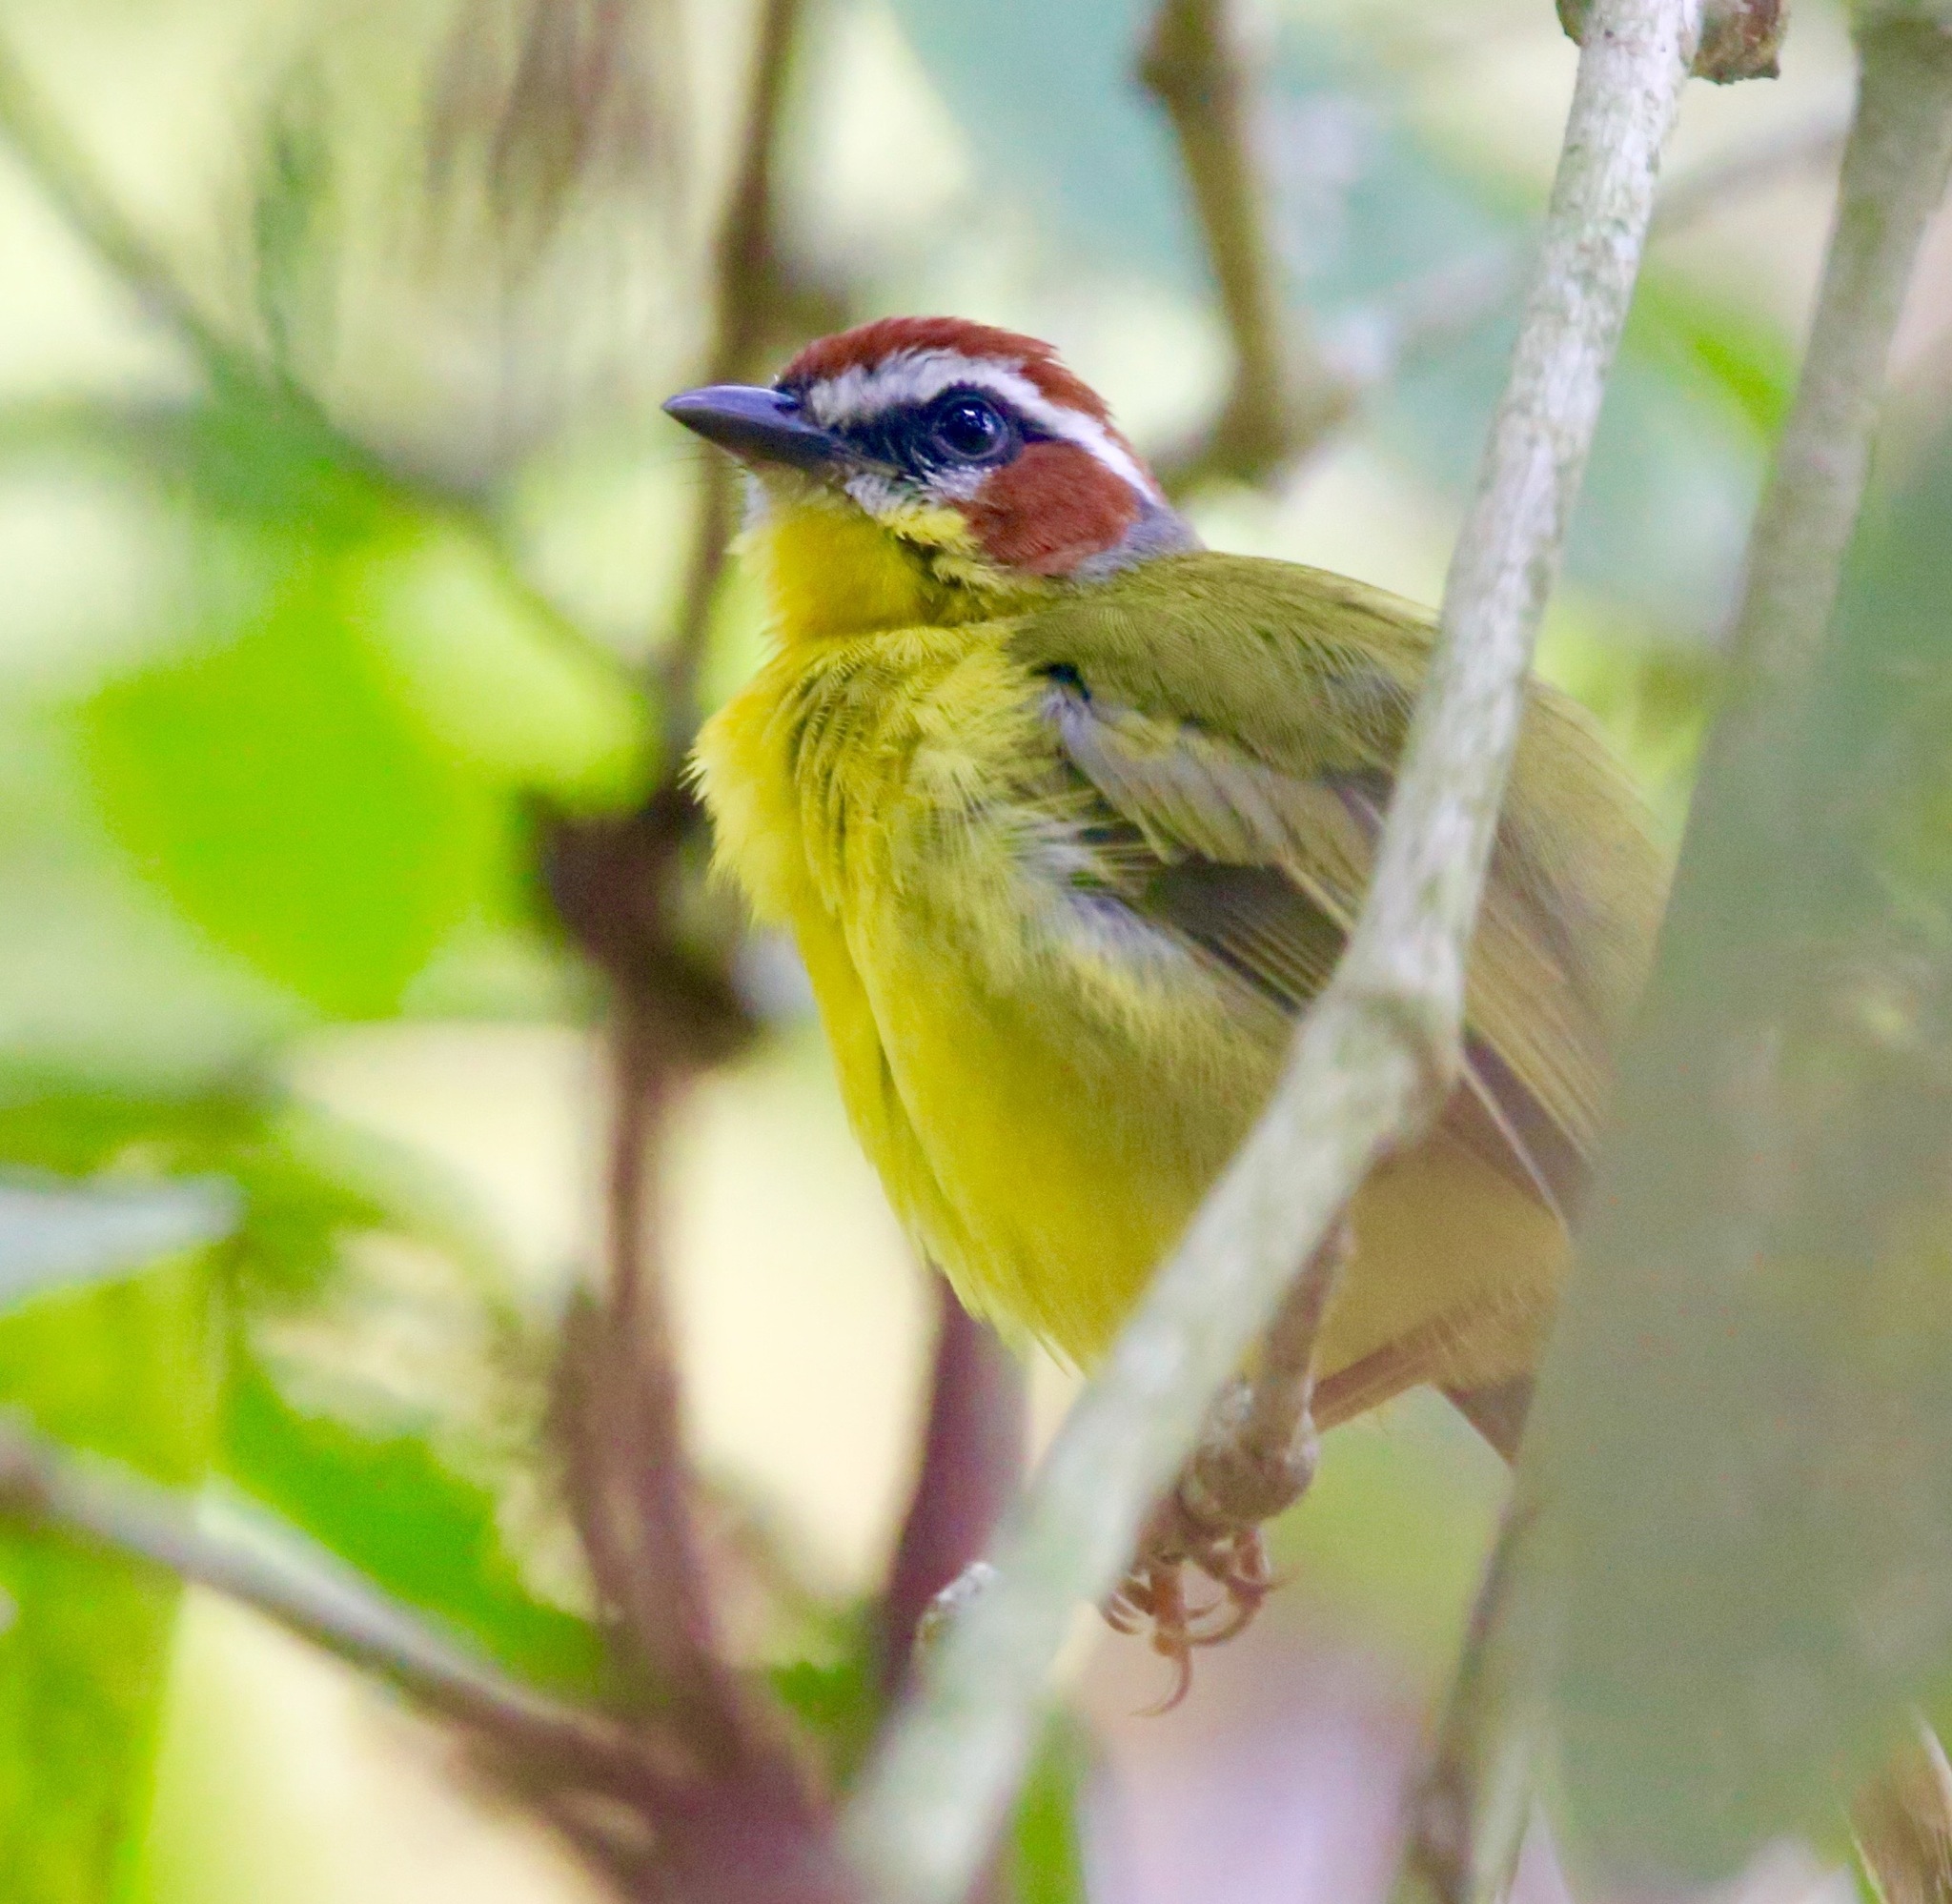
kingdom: Animalia
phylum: Chordata
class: Aves
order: Passeriformes
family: Parulidae
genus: Basileuterus
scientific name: Basileuterus rufifrons
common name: Rufous-capped warbler
